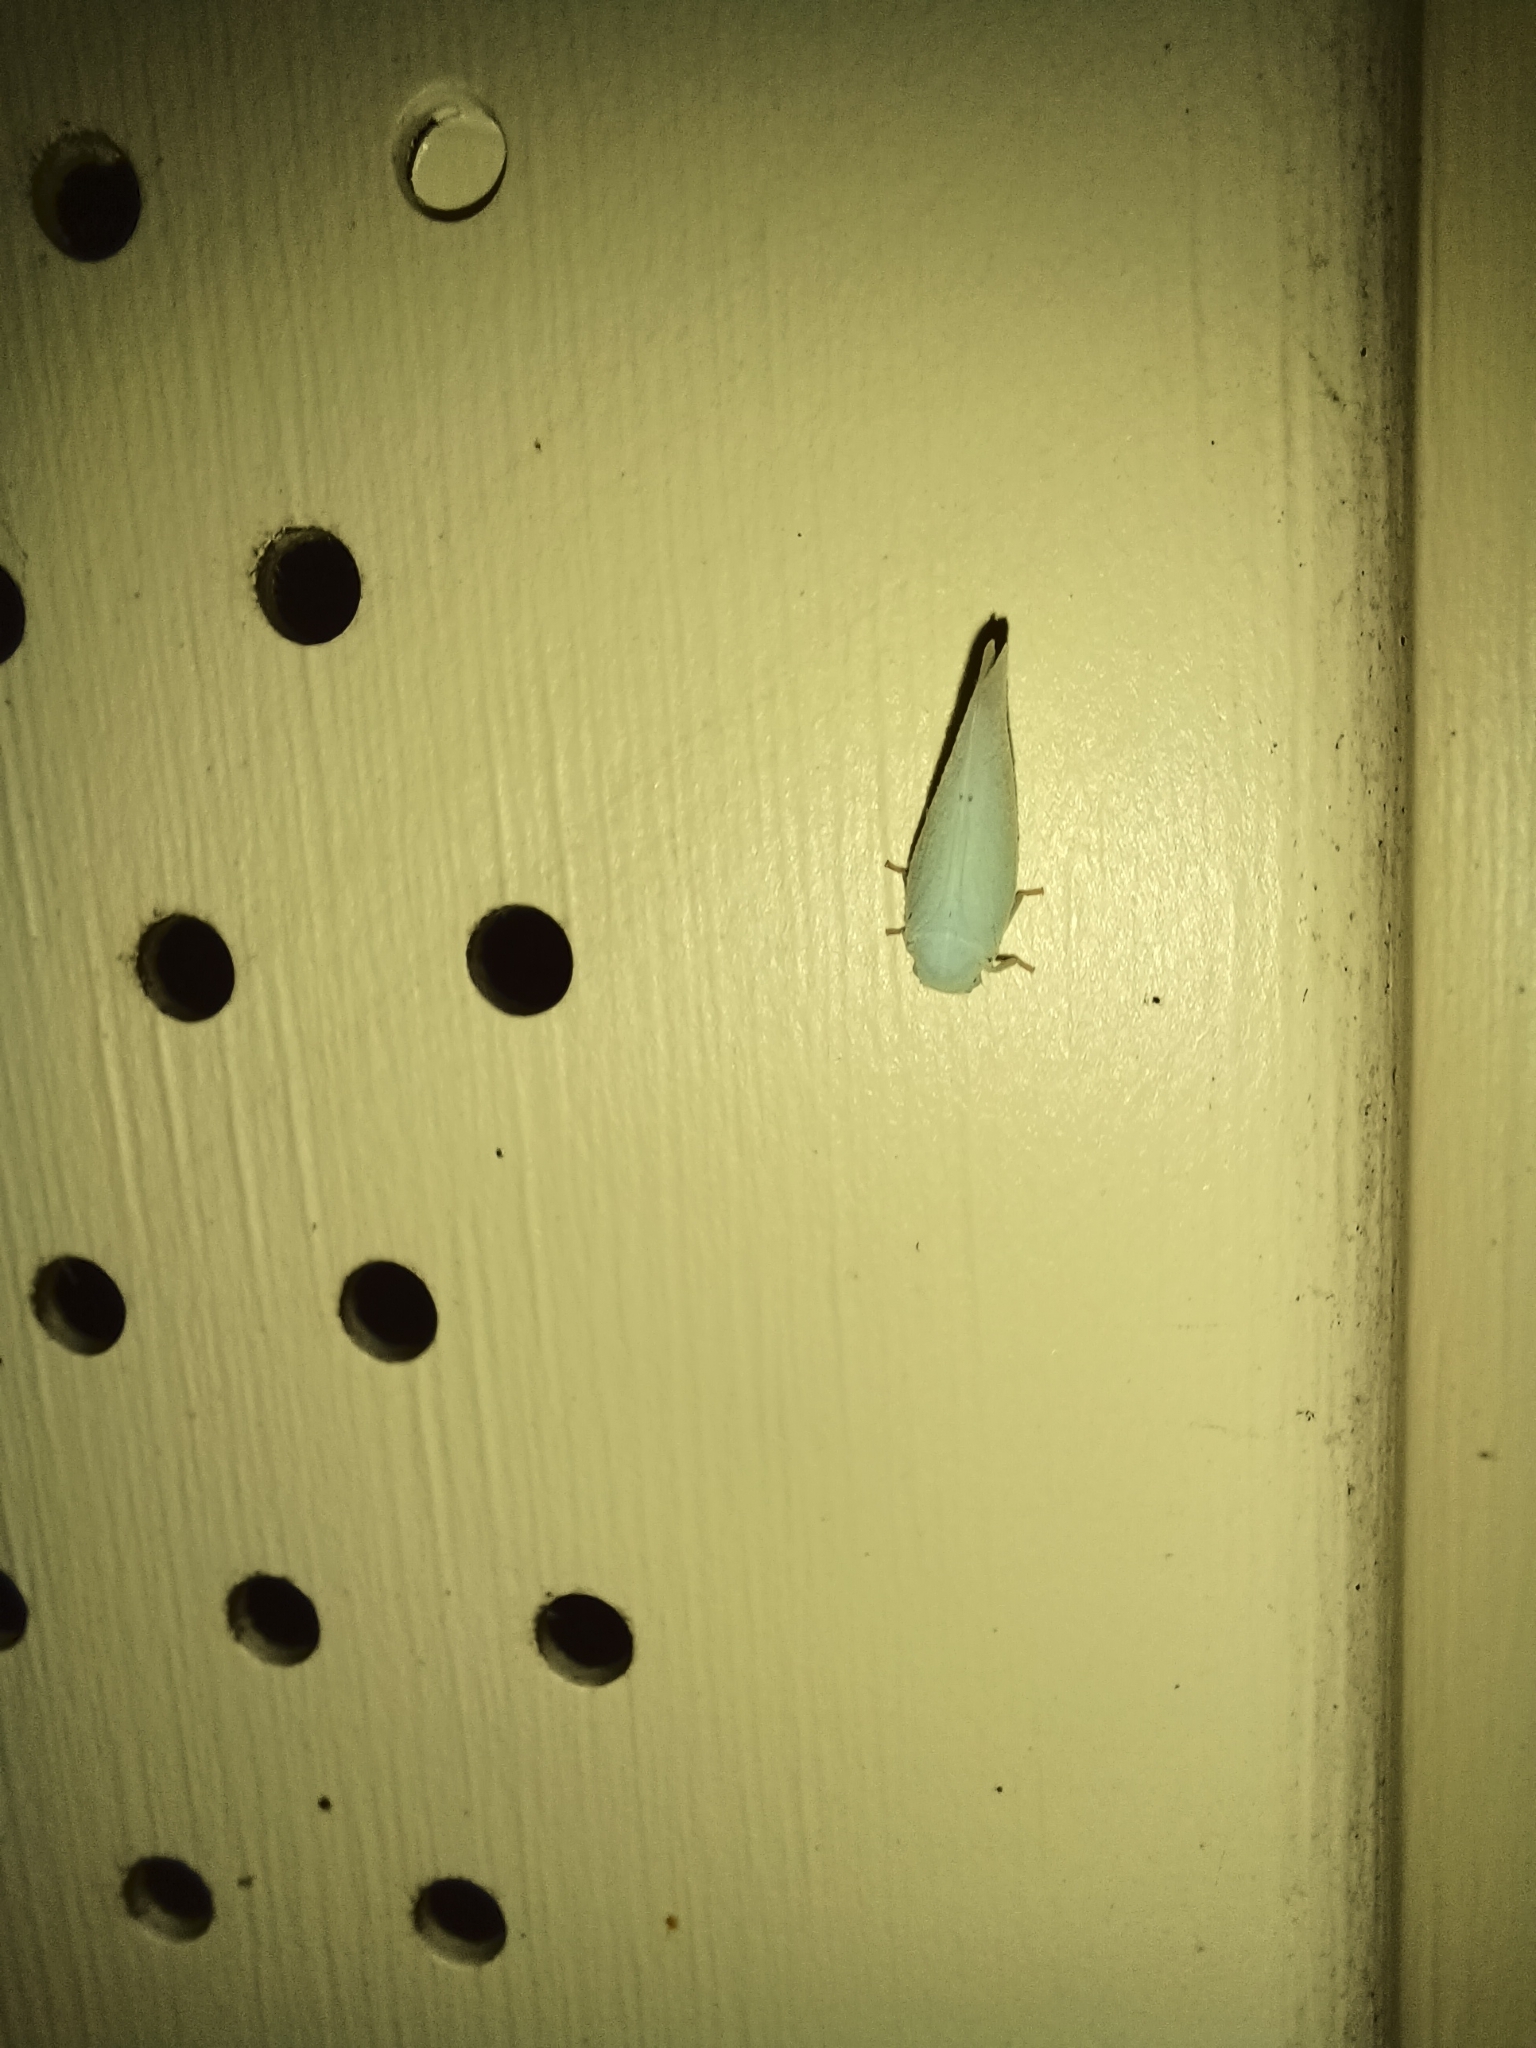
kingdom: Animalia
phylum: Arthropoda
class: Insecta
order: Hemiptera
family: Flatidae
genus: Flatormenis
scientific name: Flatormenis proxima
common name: Northern flatid planthopper
